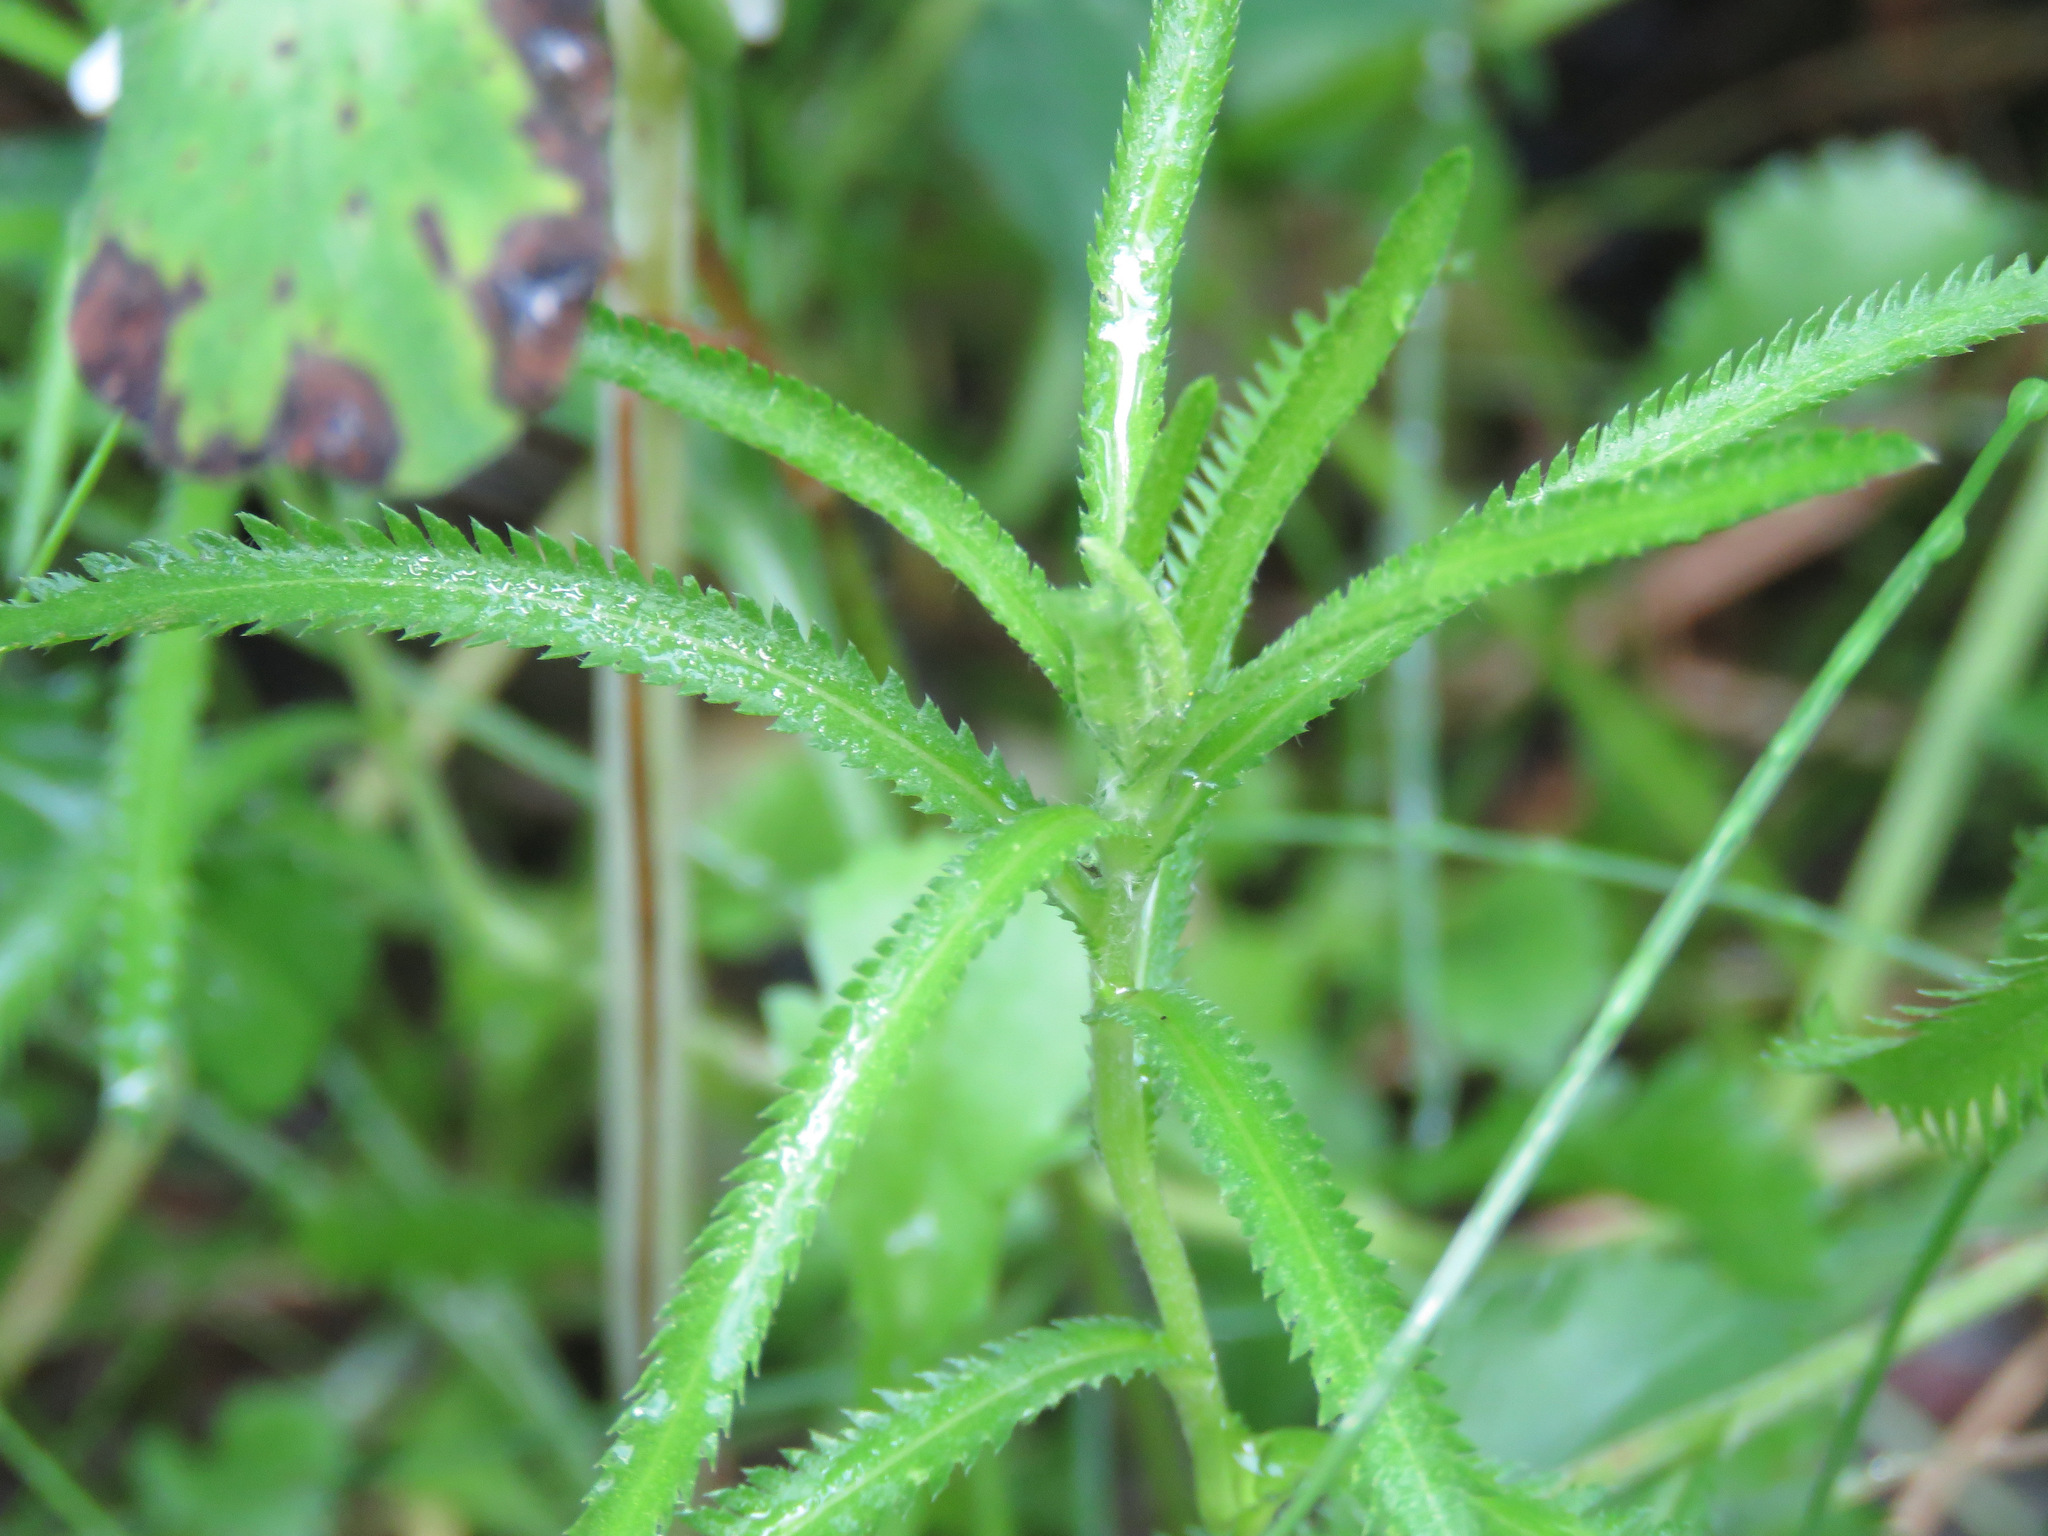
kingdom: Plantae
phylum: Tracheophyta
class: Magnoliopsida
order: Asterales
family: Asteraceae
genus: Achillea
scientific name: Achillea alpina
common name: Siberian yarrow
